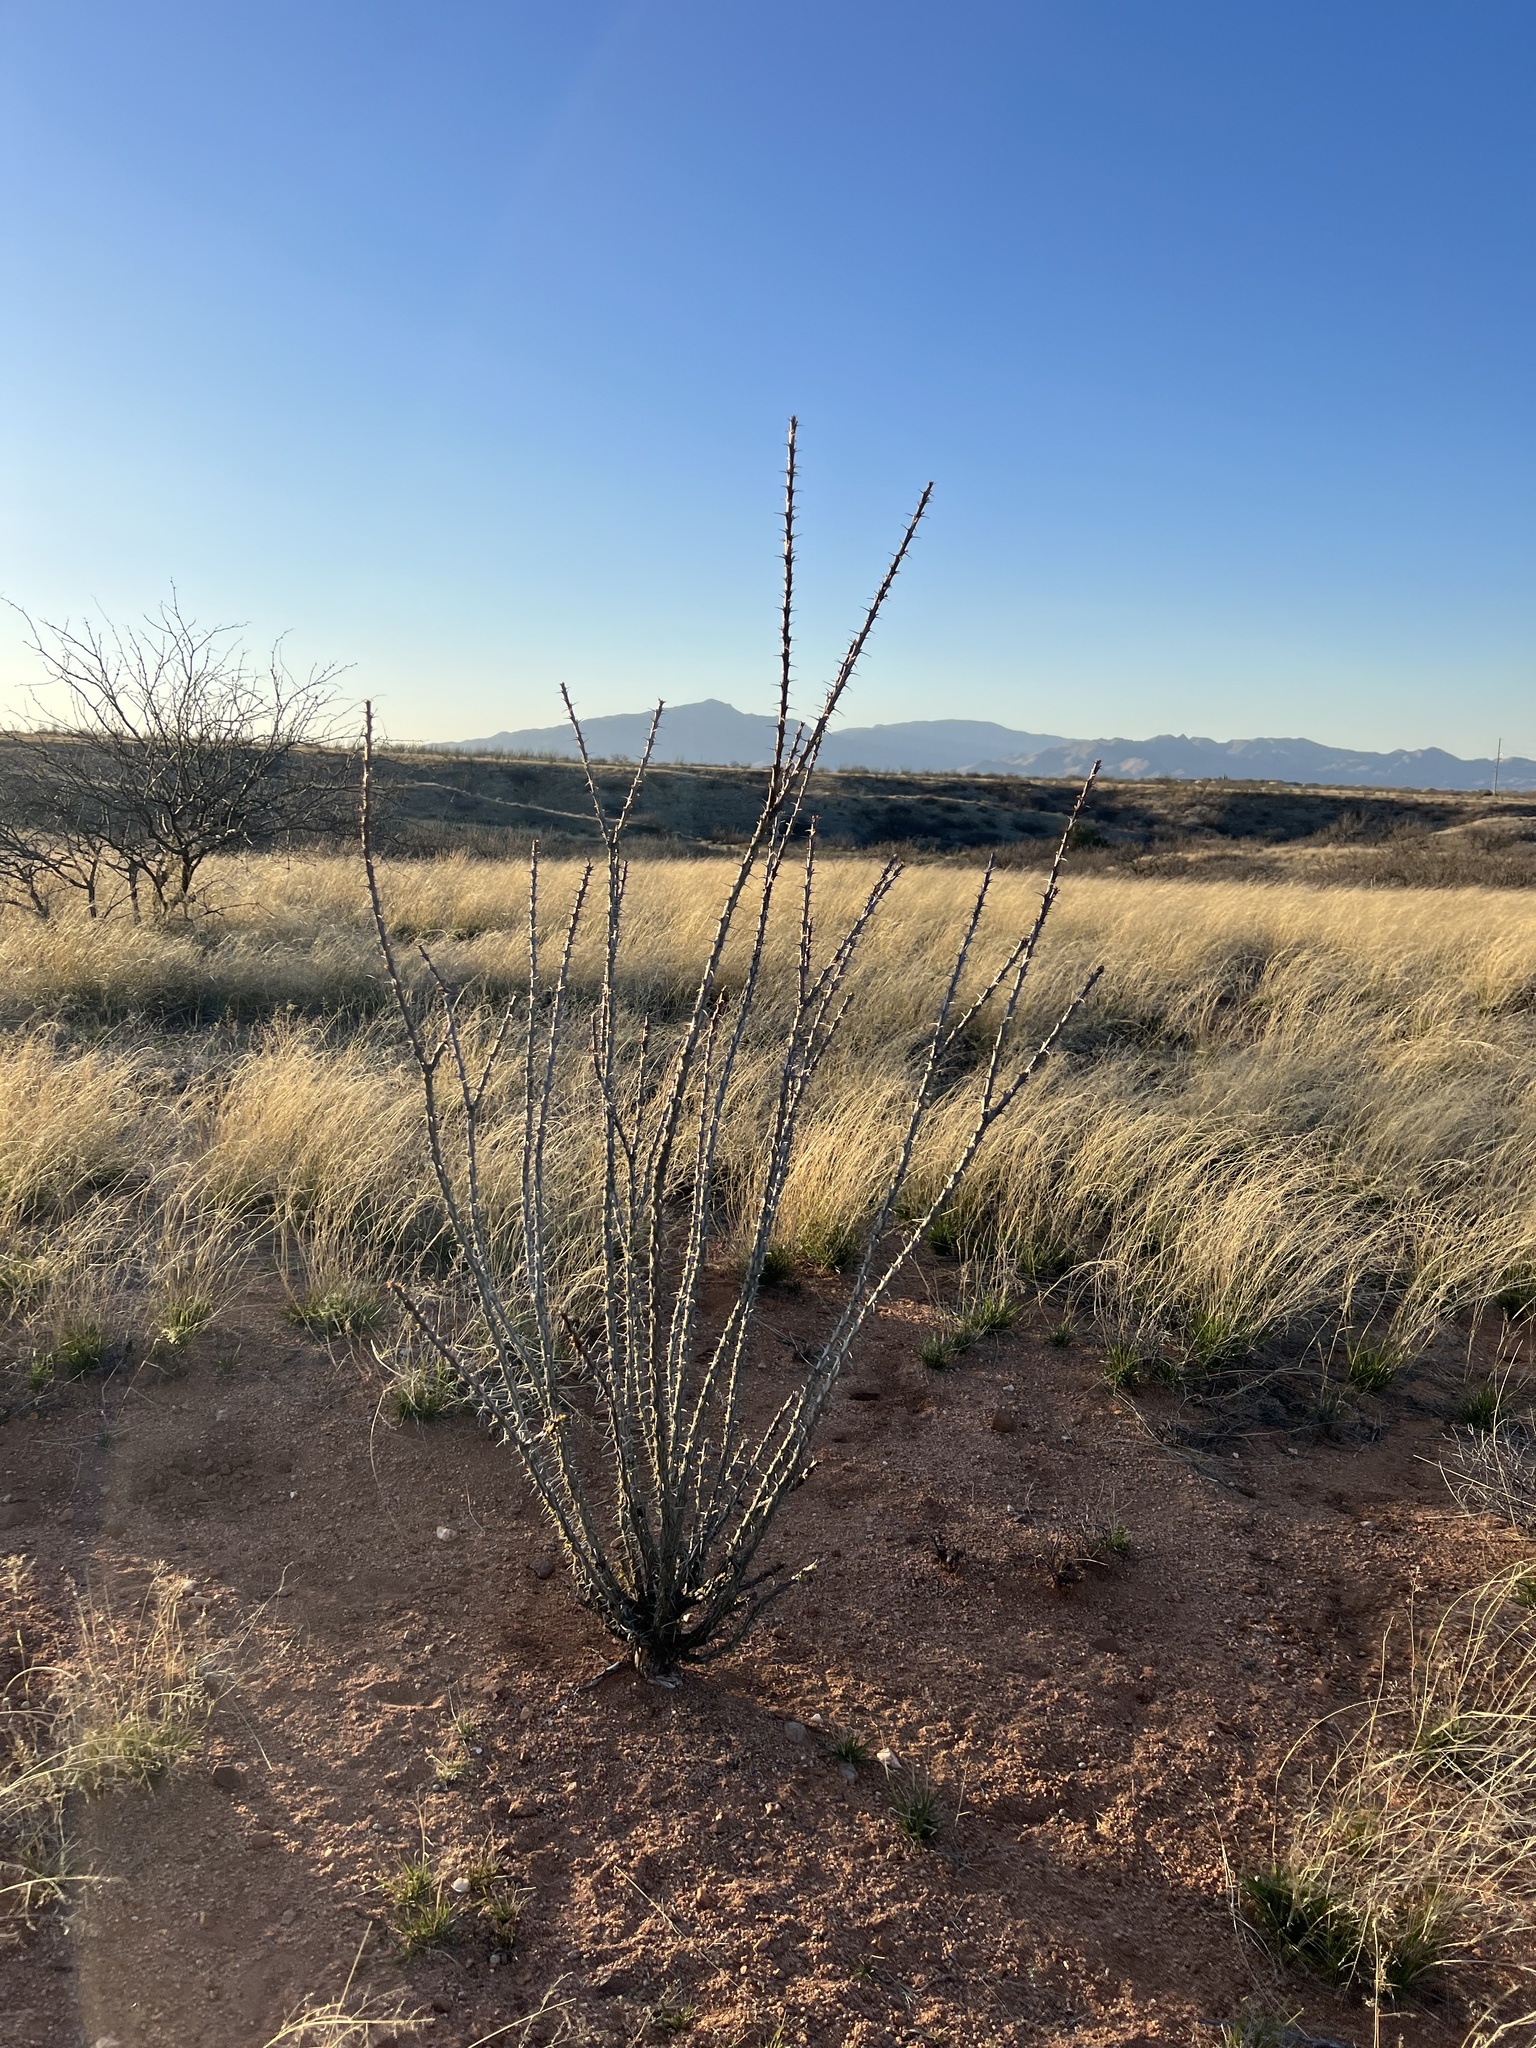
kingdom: Plantae
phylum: Tracheophyta
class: Magnoliopsida
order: Ericales
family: Fouquieriaceae
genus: Fouquieria
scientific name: Fouquieria splendens
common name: Vine-cactus
